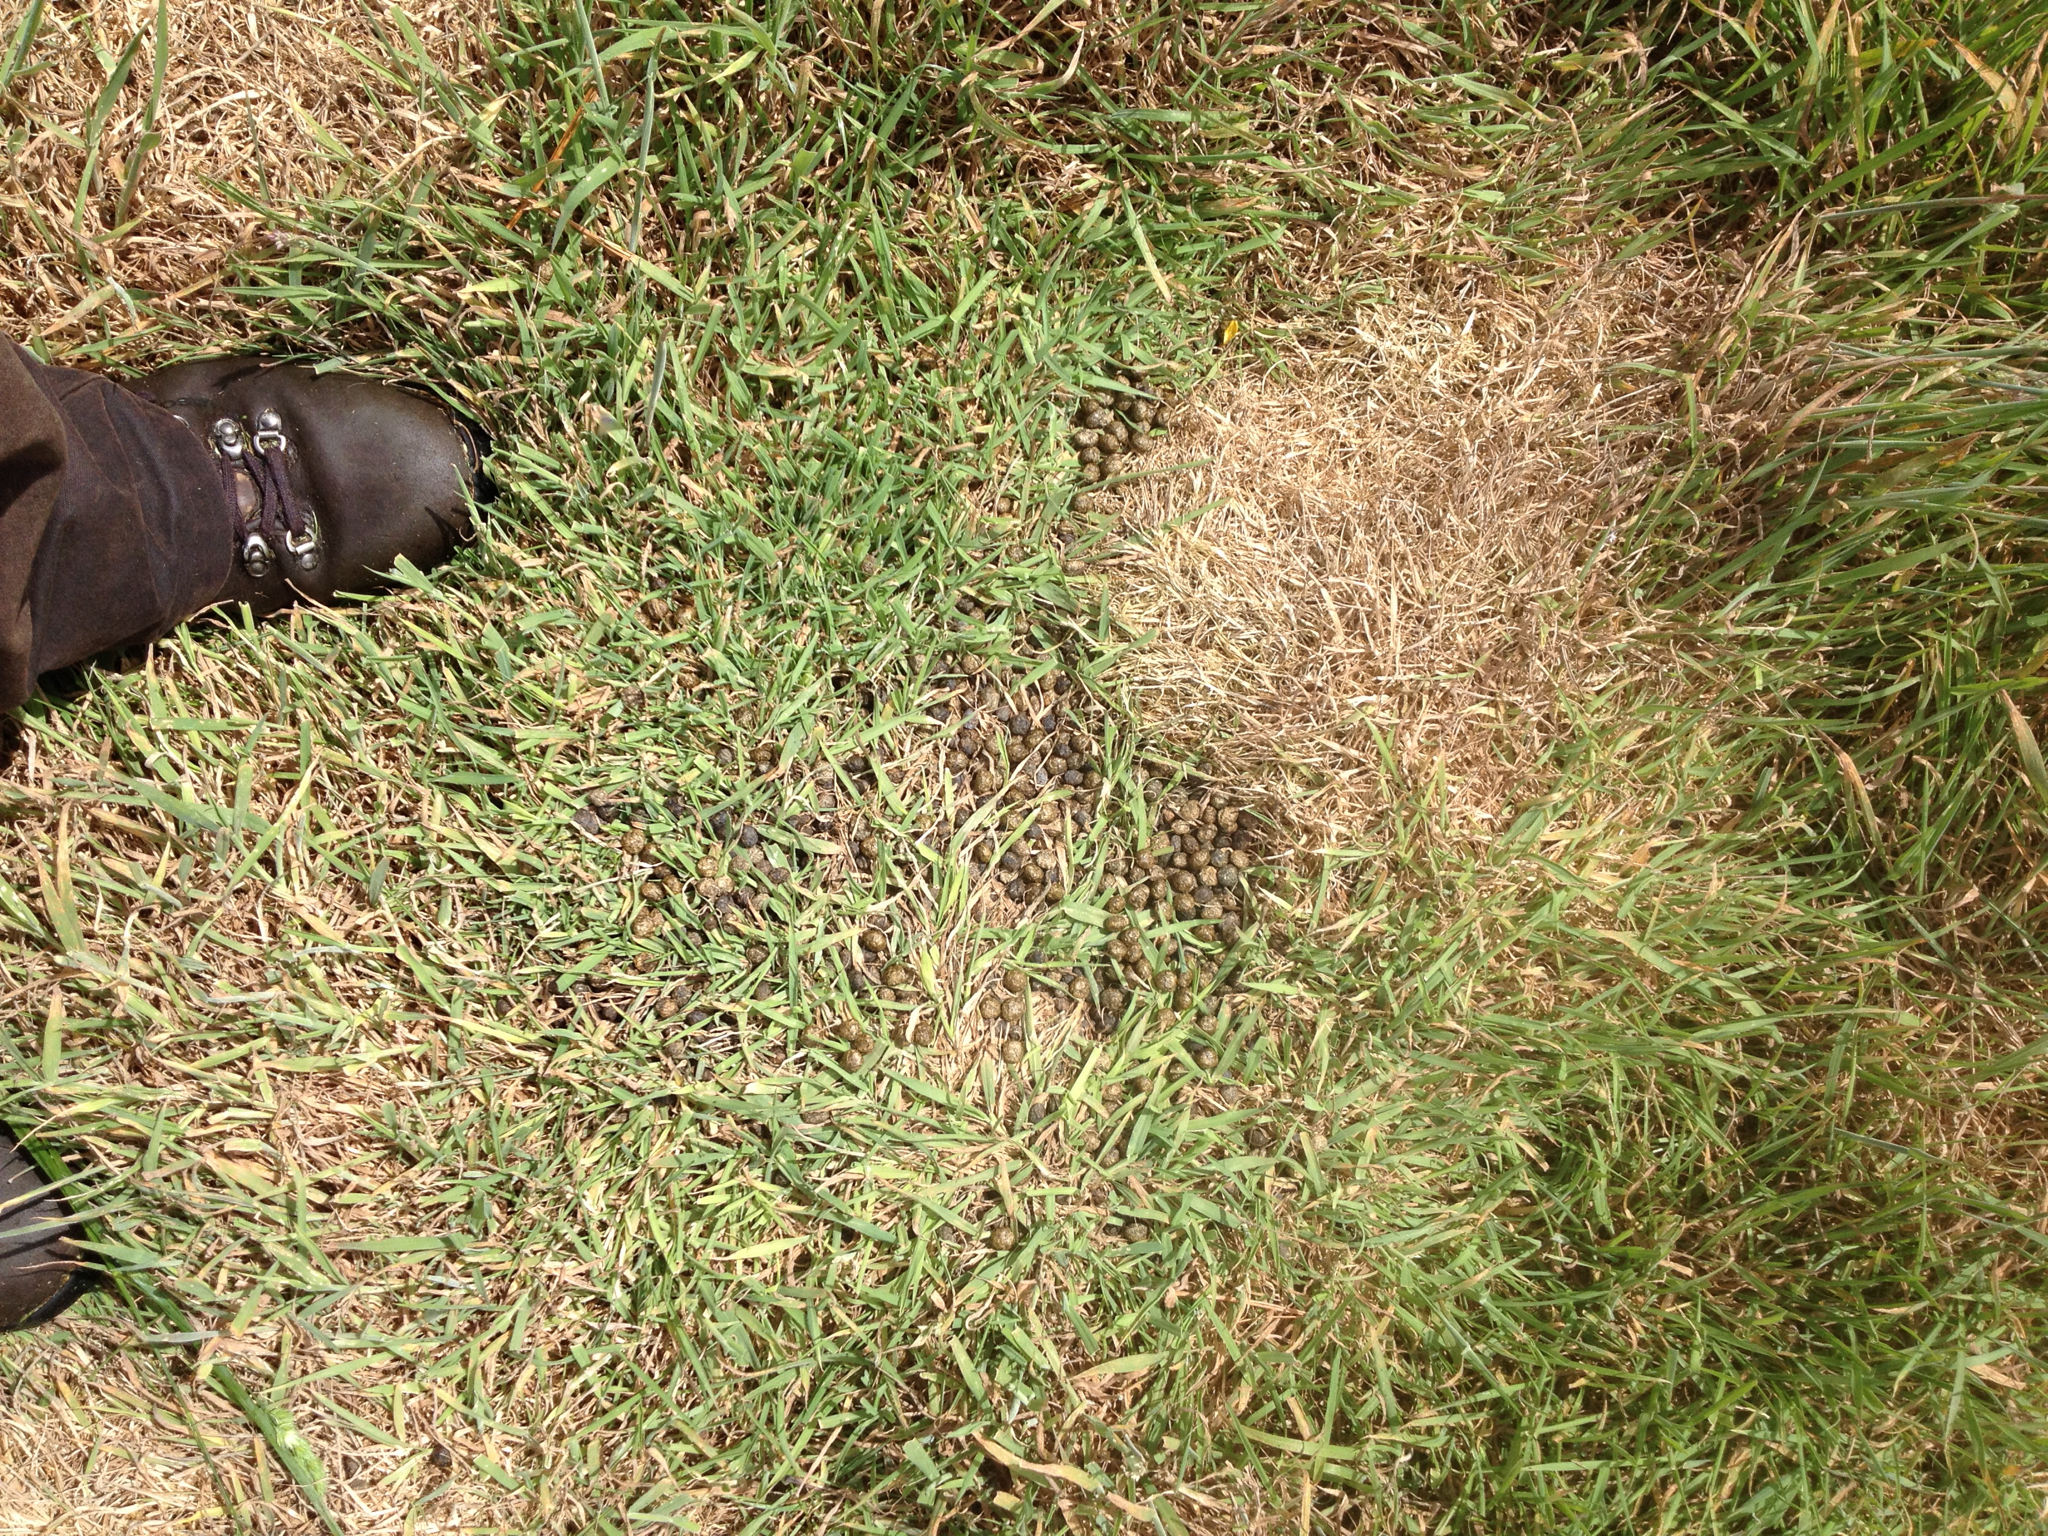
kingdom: Animalia
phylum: Chordata
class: Mammalia
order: Artiodactyla
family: Bovidae
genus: Capra
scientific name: Capra hircus
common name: Domestic goat
